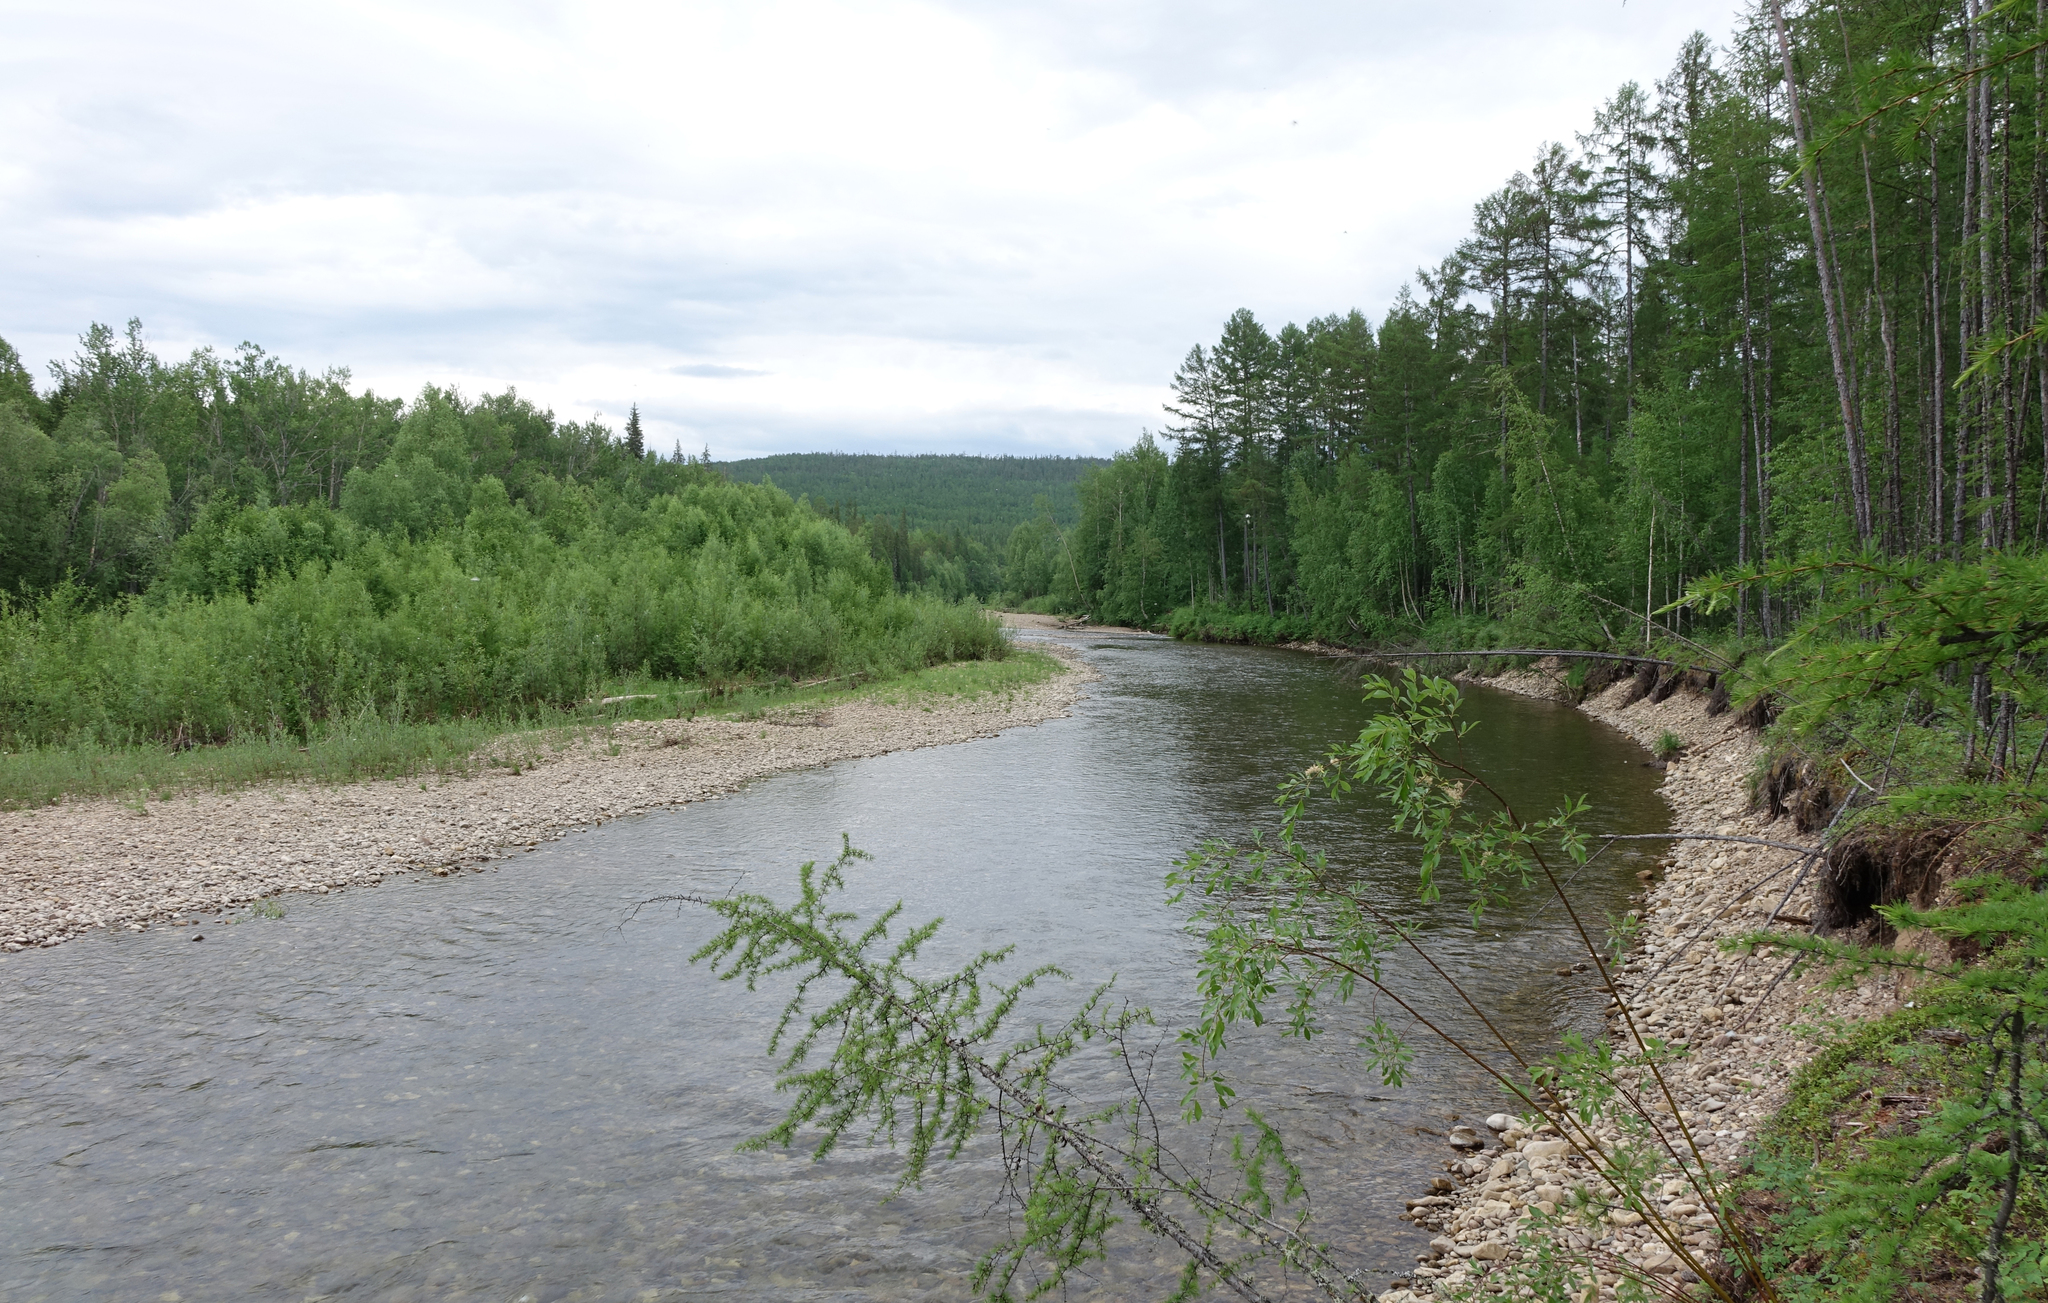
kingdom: Plantae
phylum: Tracheophyta
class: Pinopsida
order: Pinales
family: Pinaceae
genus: Larix
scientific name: Larix gmelinii
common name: Dahurian larch
